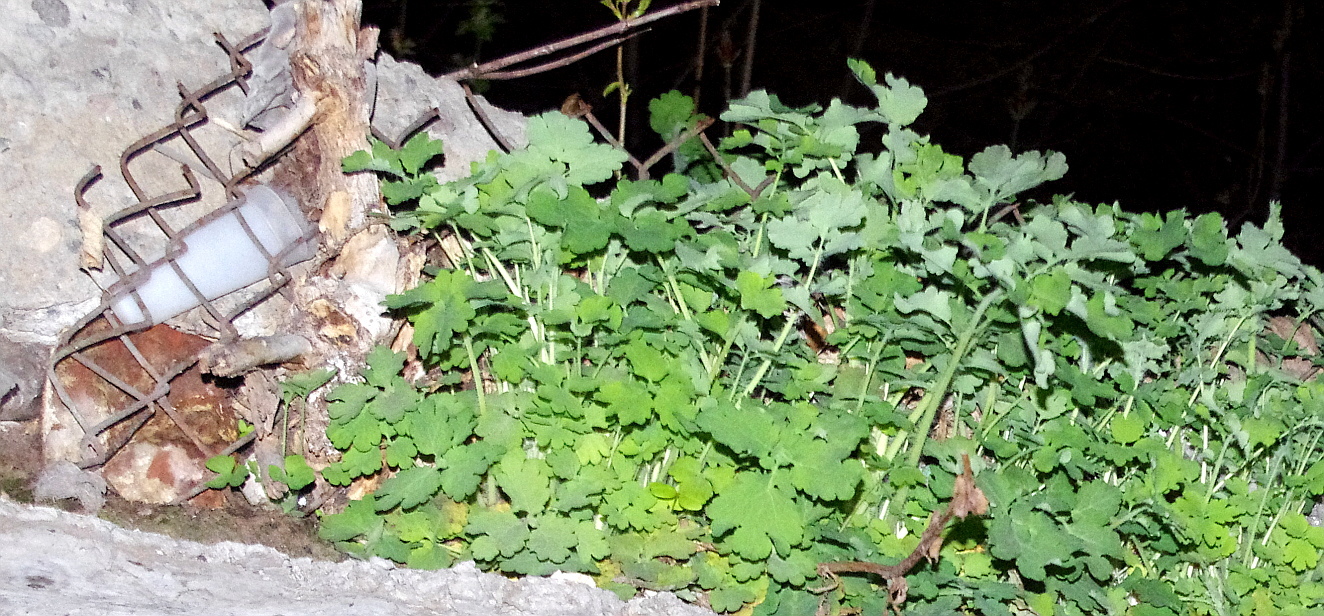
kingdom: Plantae
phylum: Tracheophyta
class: Magnoliopsida
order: Ranunculales
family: Papaveraceae
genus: Chelidonium
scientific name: Chelidonium majus
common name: Greater celandine
